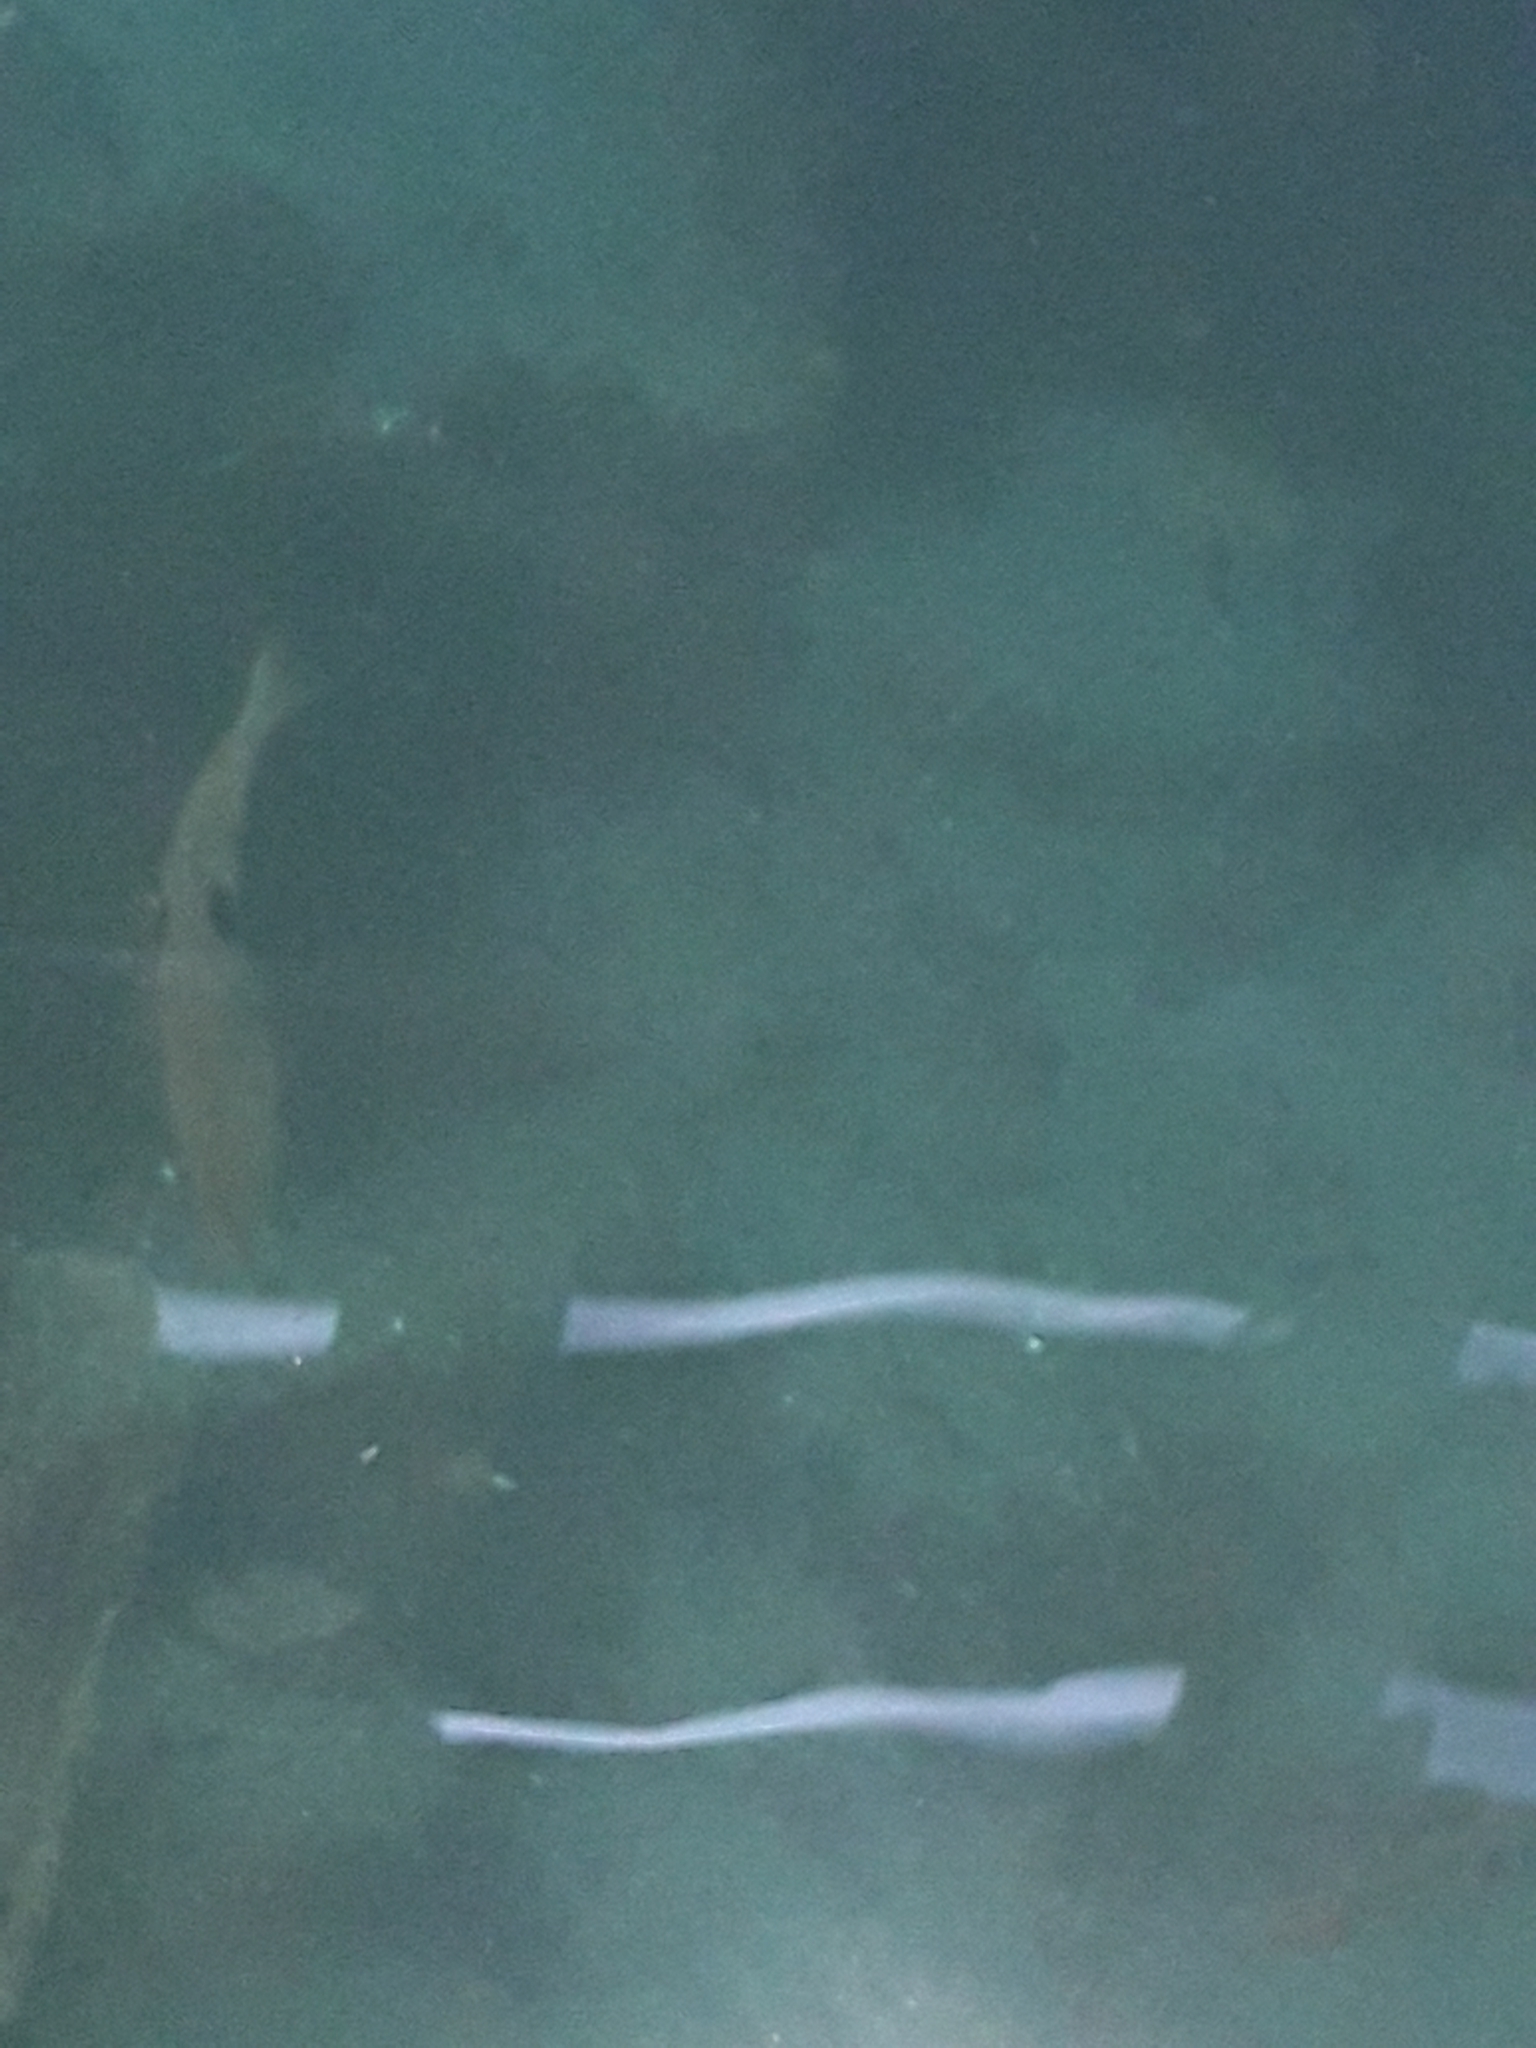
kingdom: Animalia
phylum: Chordata
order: Perciformes
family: Labridae
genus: Notolabrus
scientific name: Notolabrus celidotus
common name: Spotty
